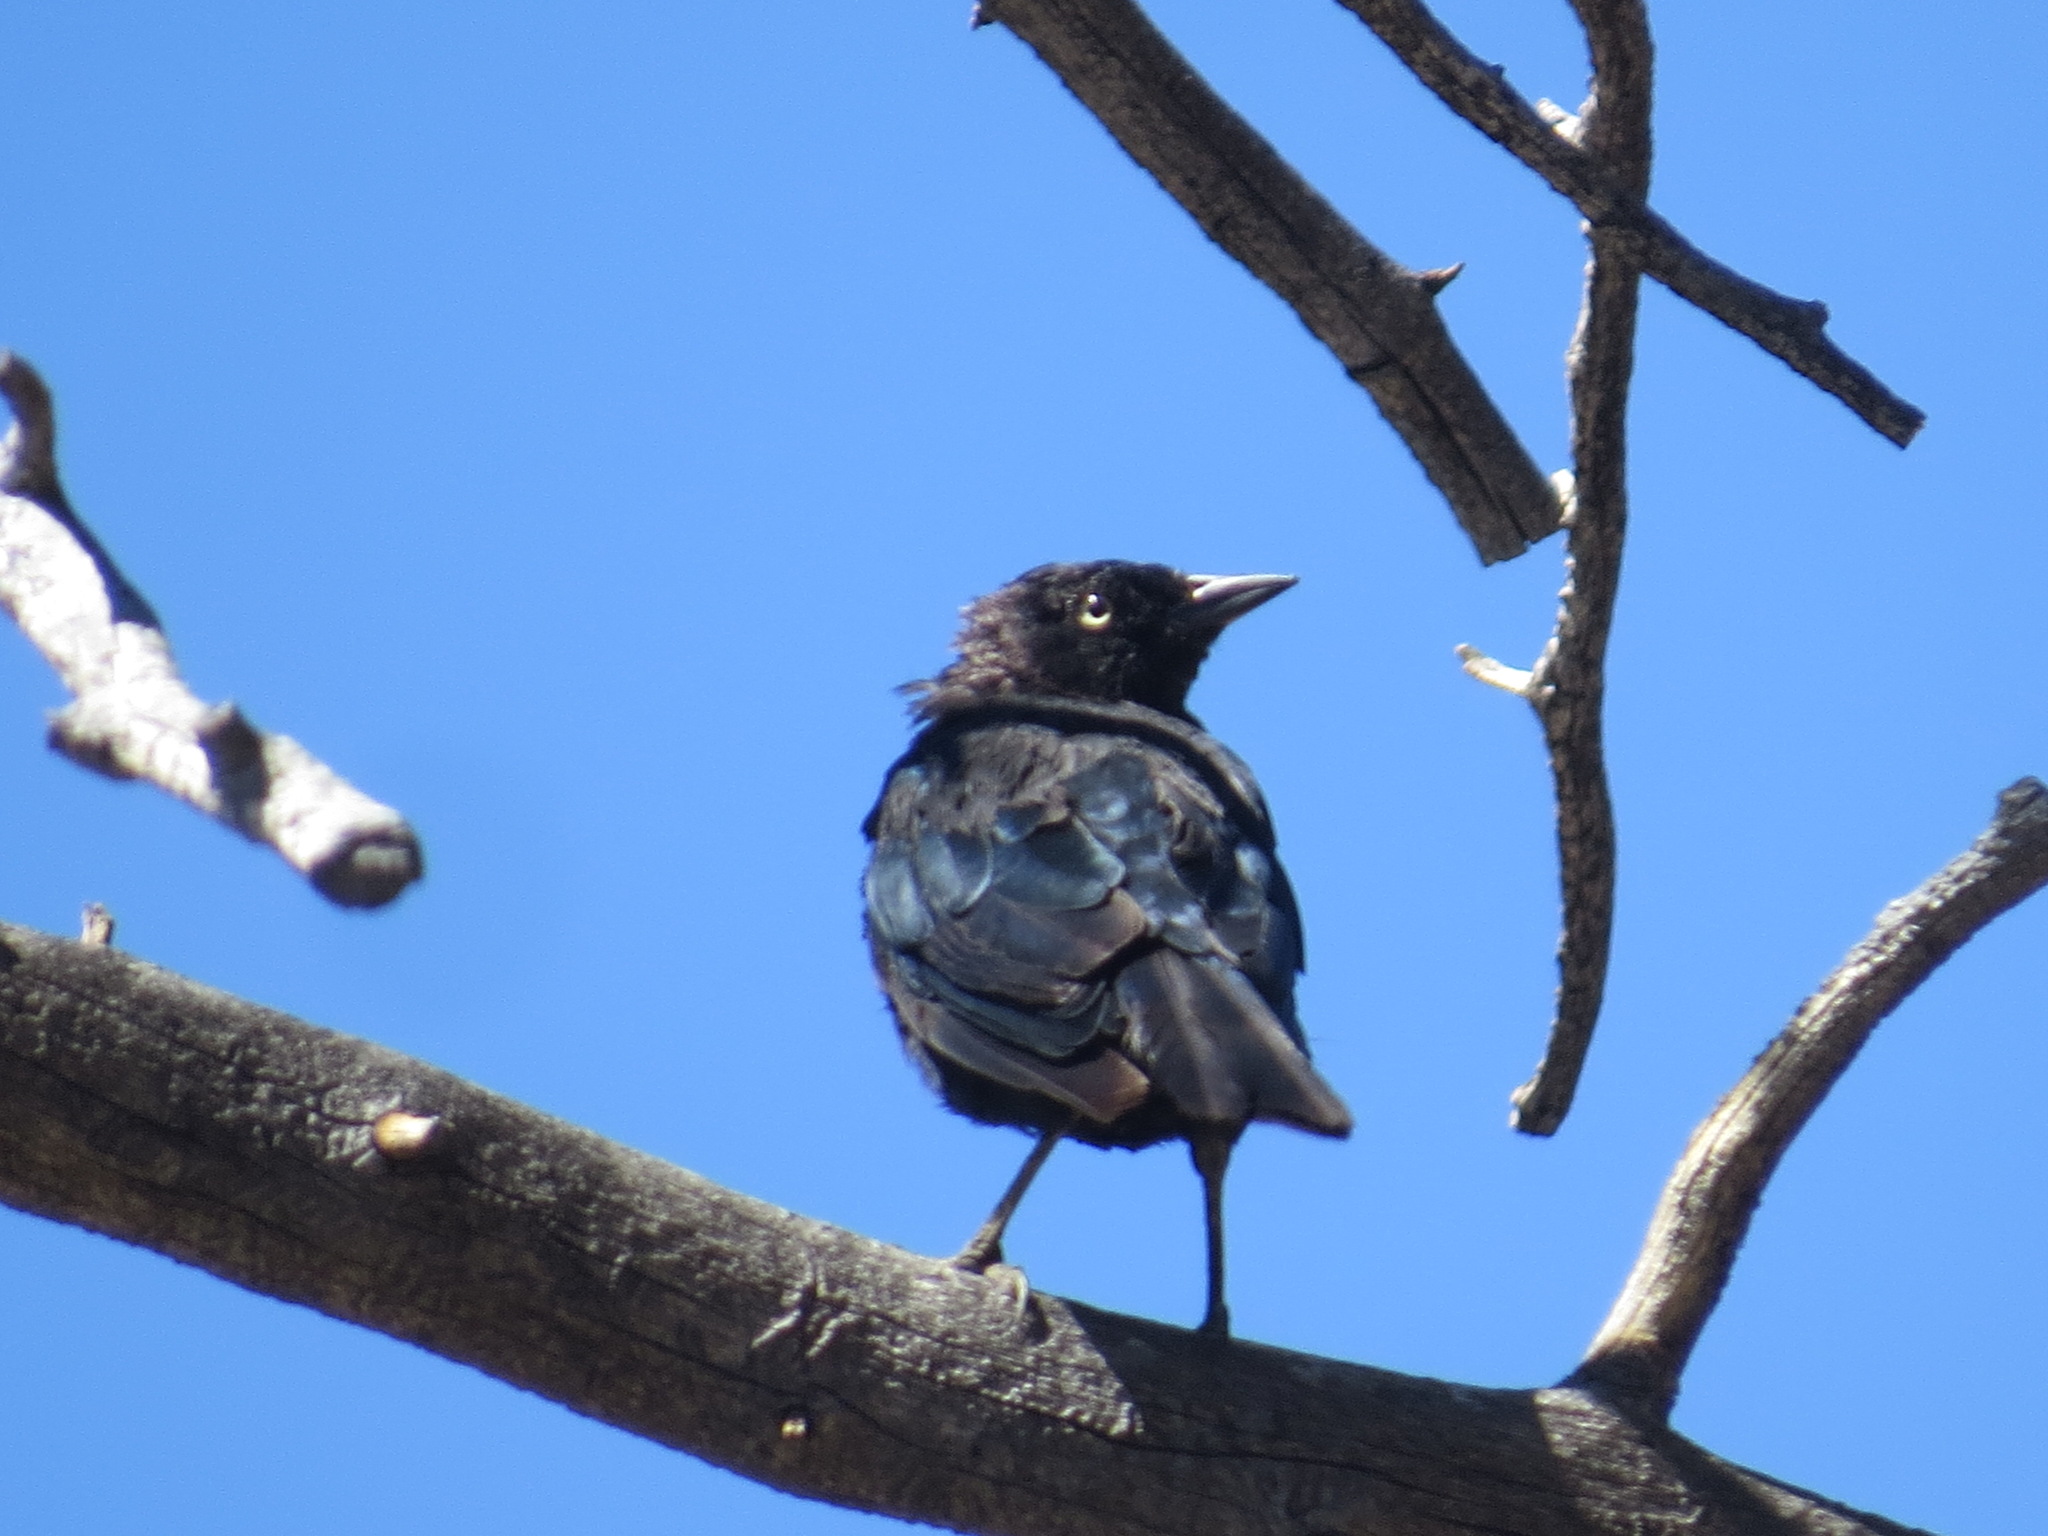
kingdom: Animalia
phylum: Chordata
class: Aves
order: Passeriformes
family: Icteridae
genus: Euphagus
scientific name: Euphagus cyanocephalus
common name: Brewer's blackbird
